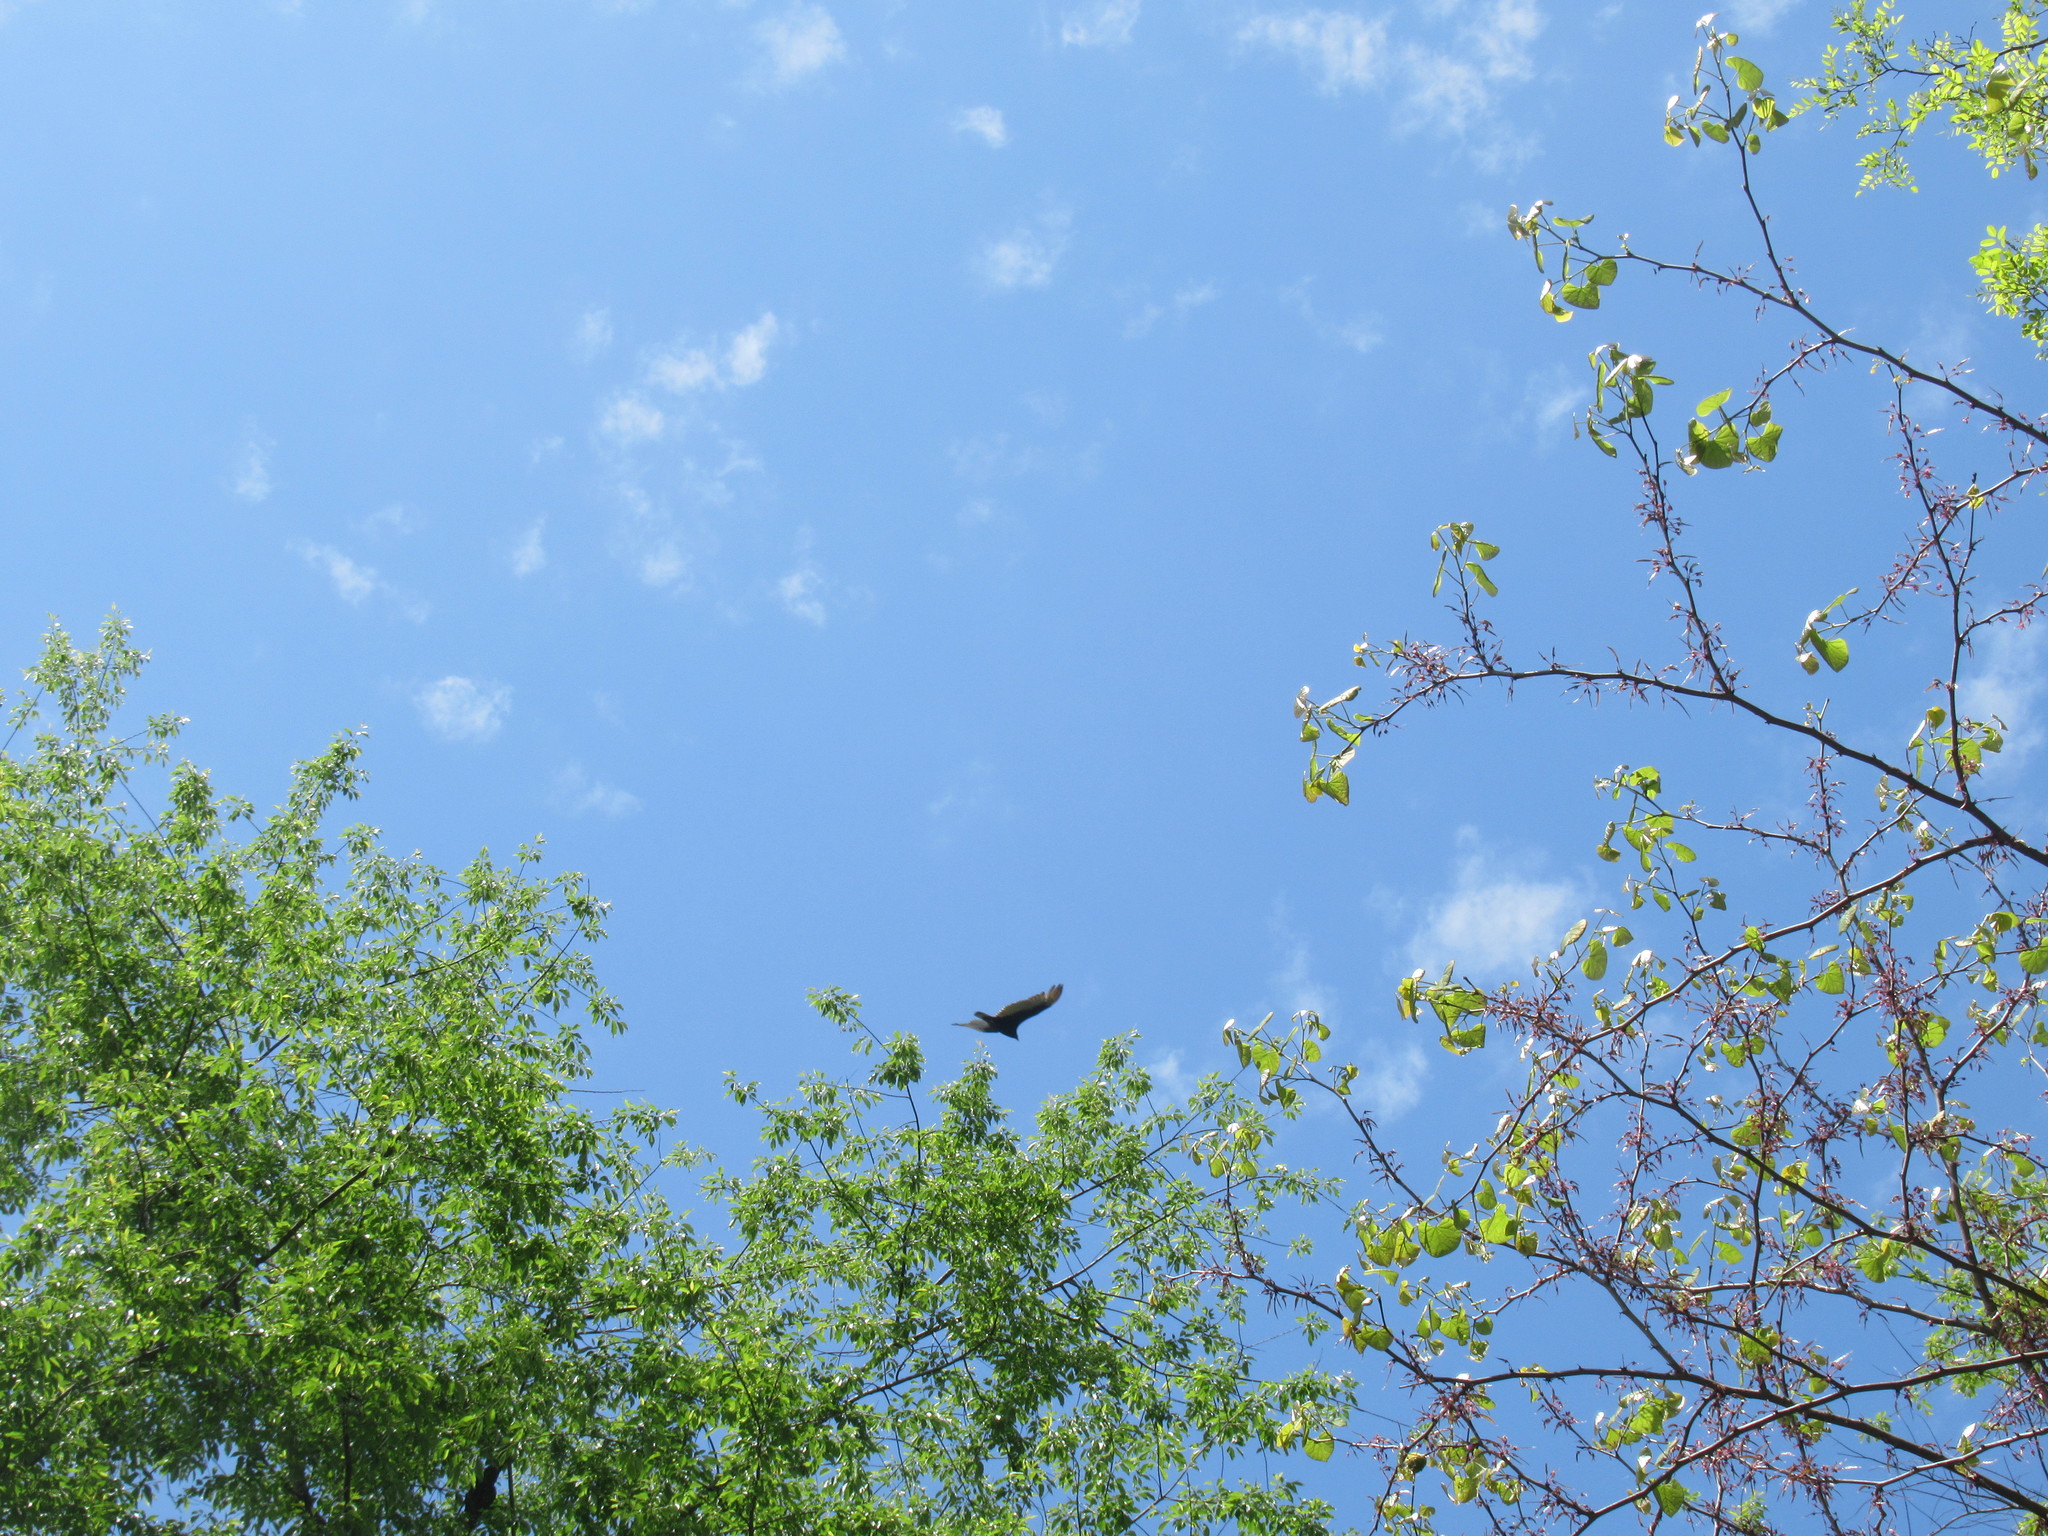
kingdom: Animalia
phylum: Chordata
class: Aves
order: Accipitriformes
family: Cathartidae
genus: Cathartes
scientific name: Cathartes aura
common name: Turkey vulture
